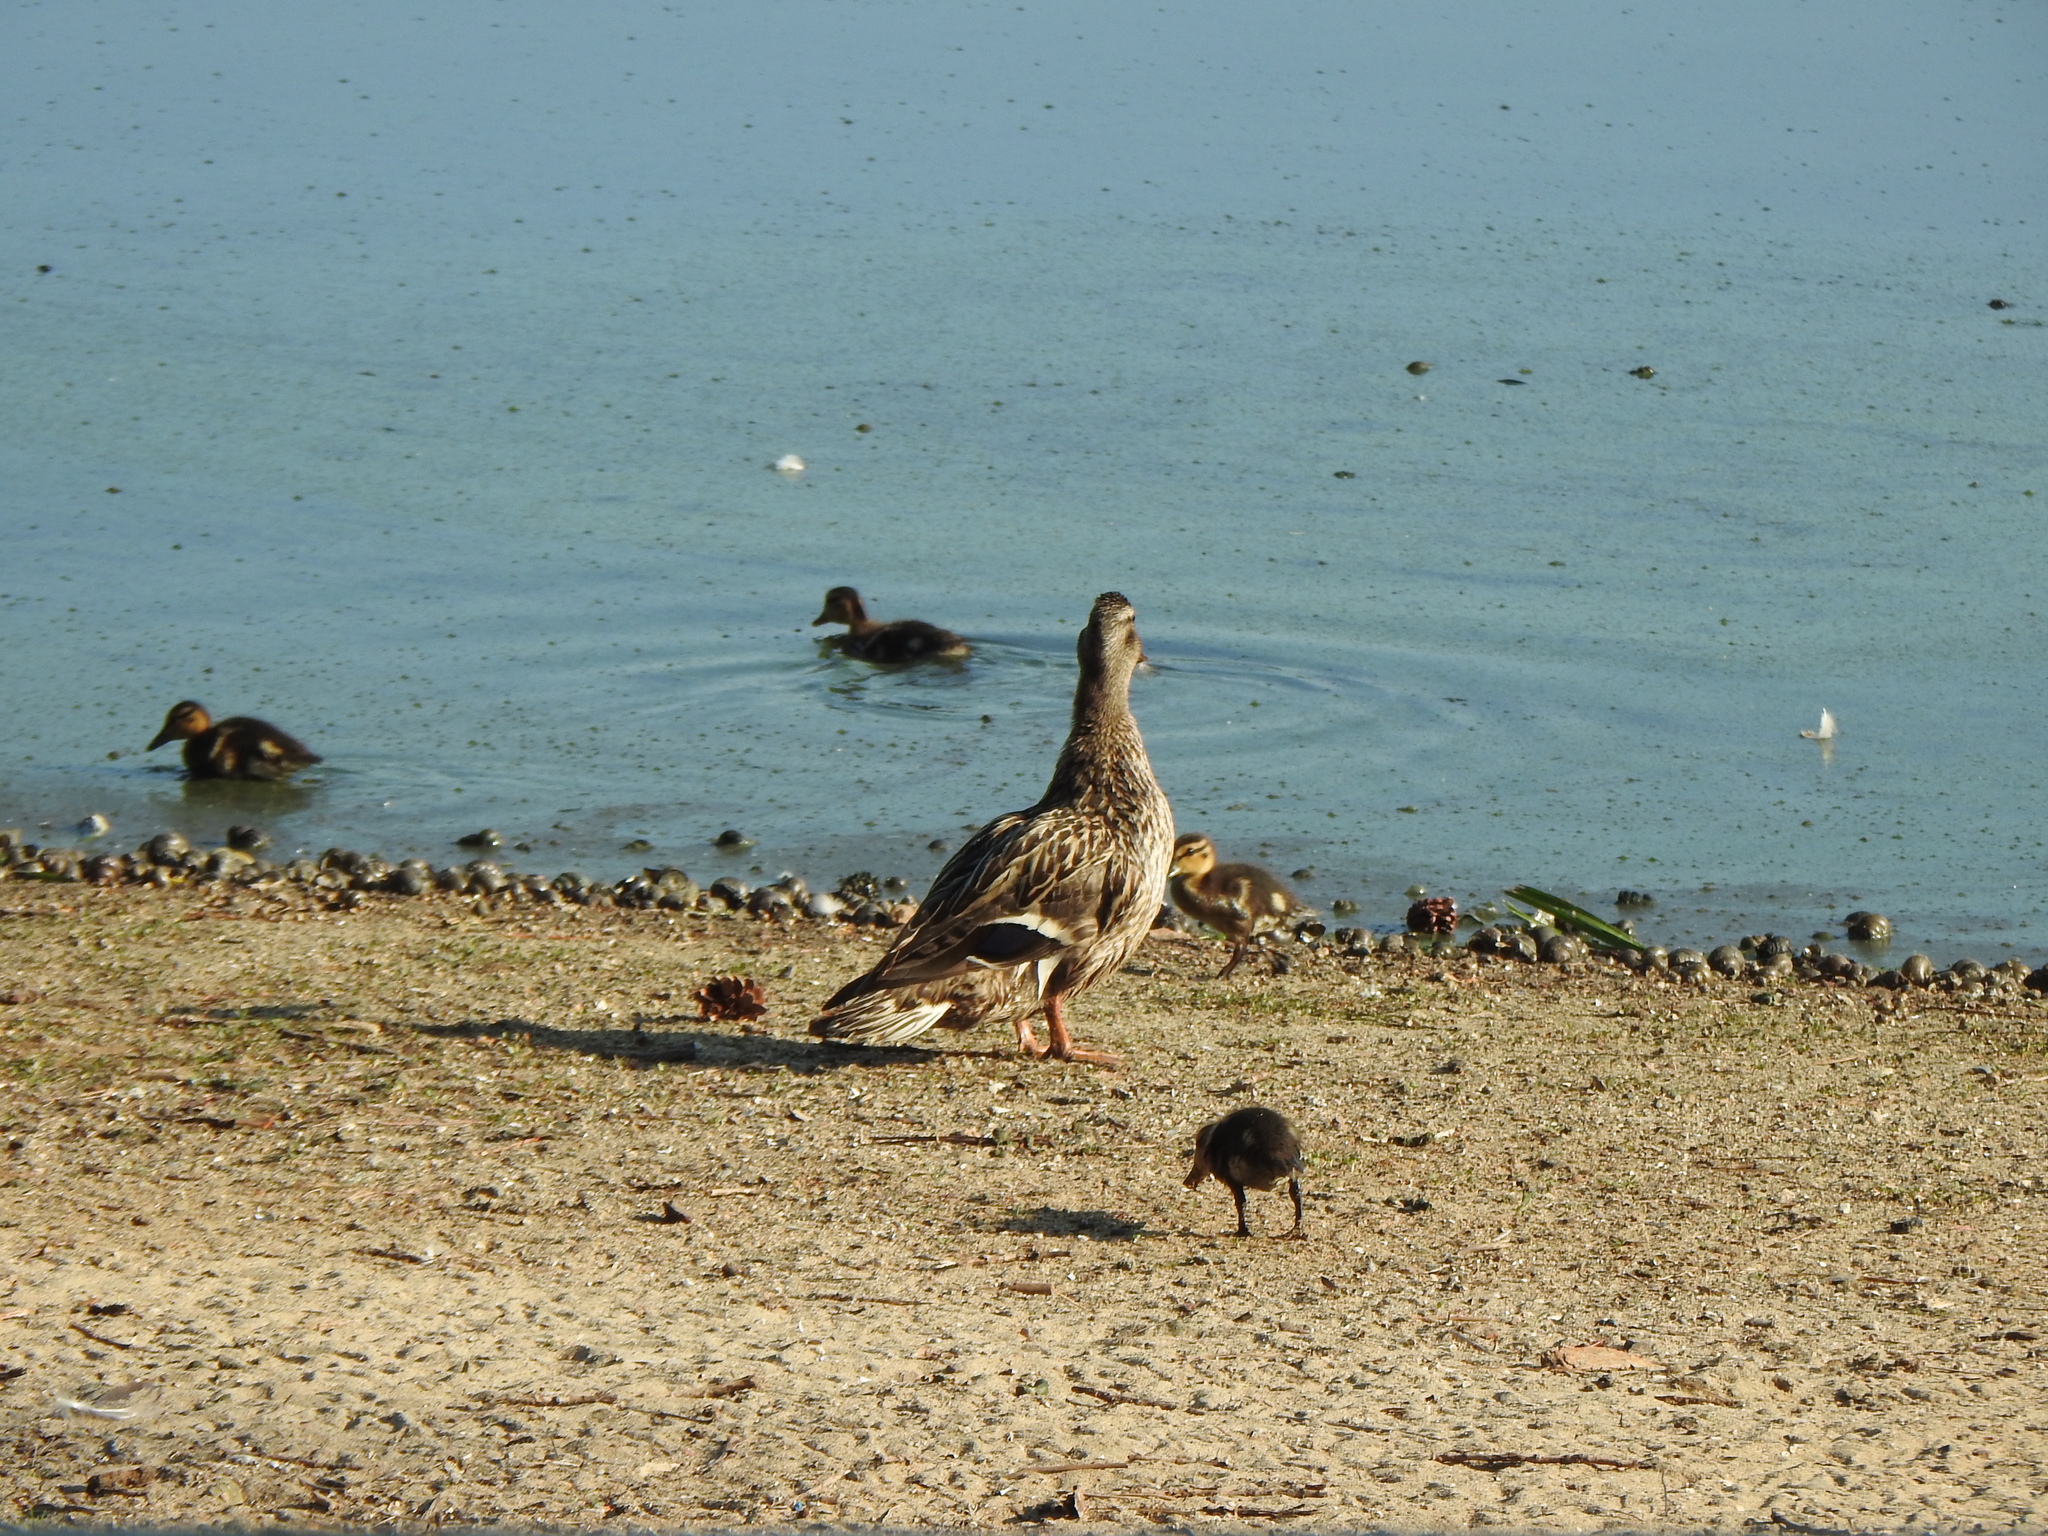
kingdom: Animalia
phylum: Chordata
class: Aves
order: Anseriformes
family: Anatidae
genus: Anas
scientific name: Anas platyrhynchos
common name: Mallard
